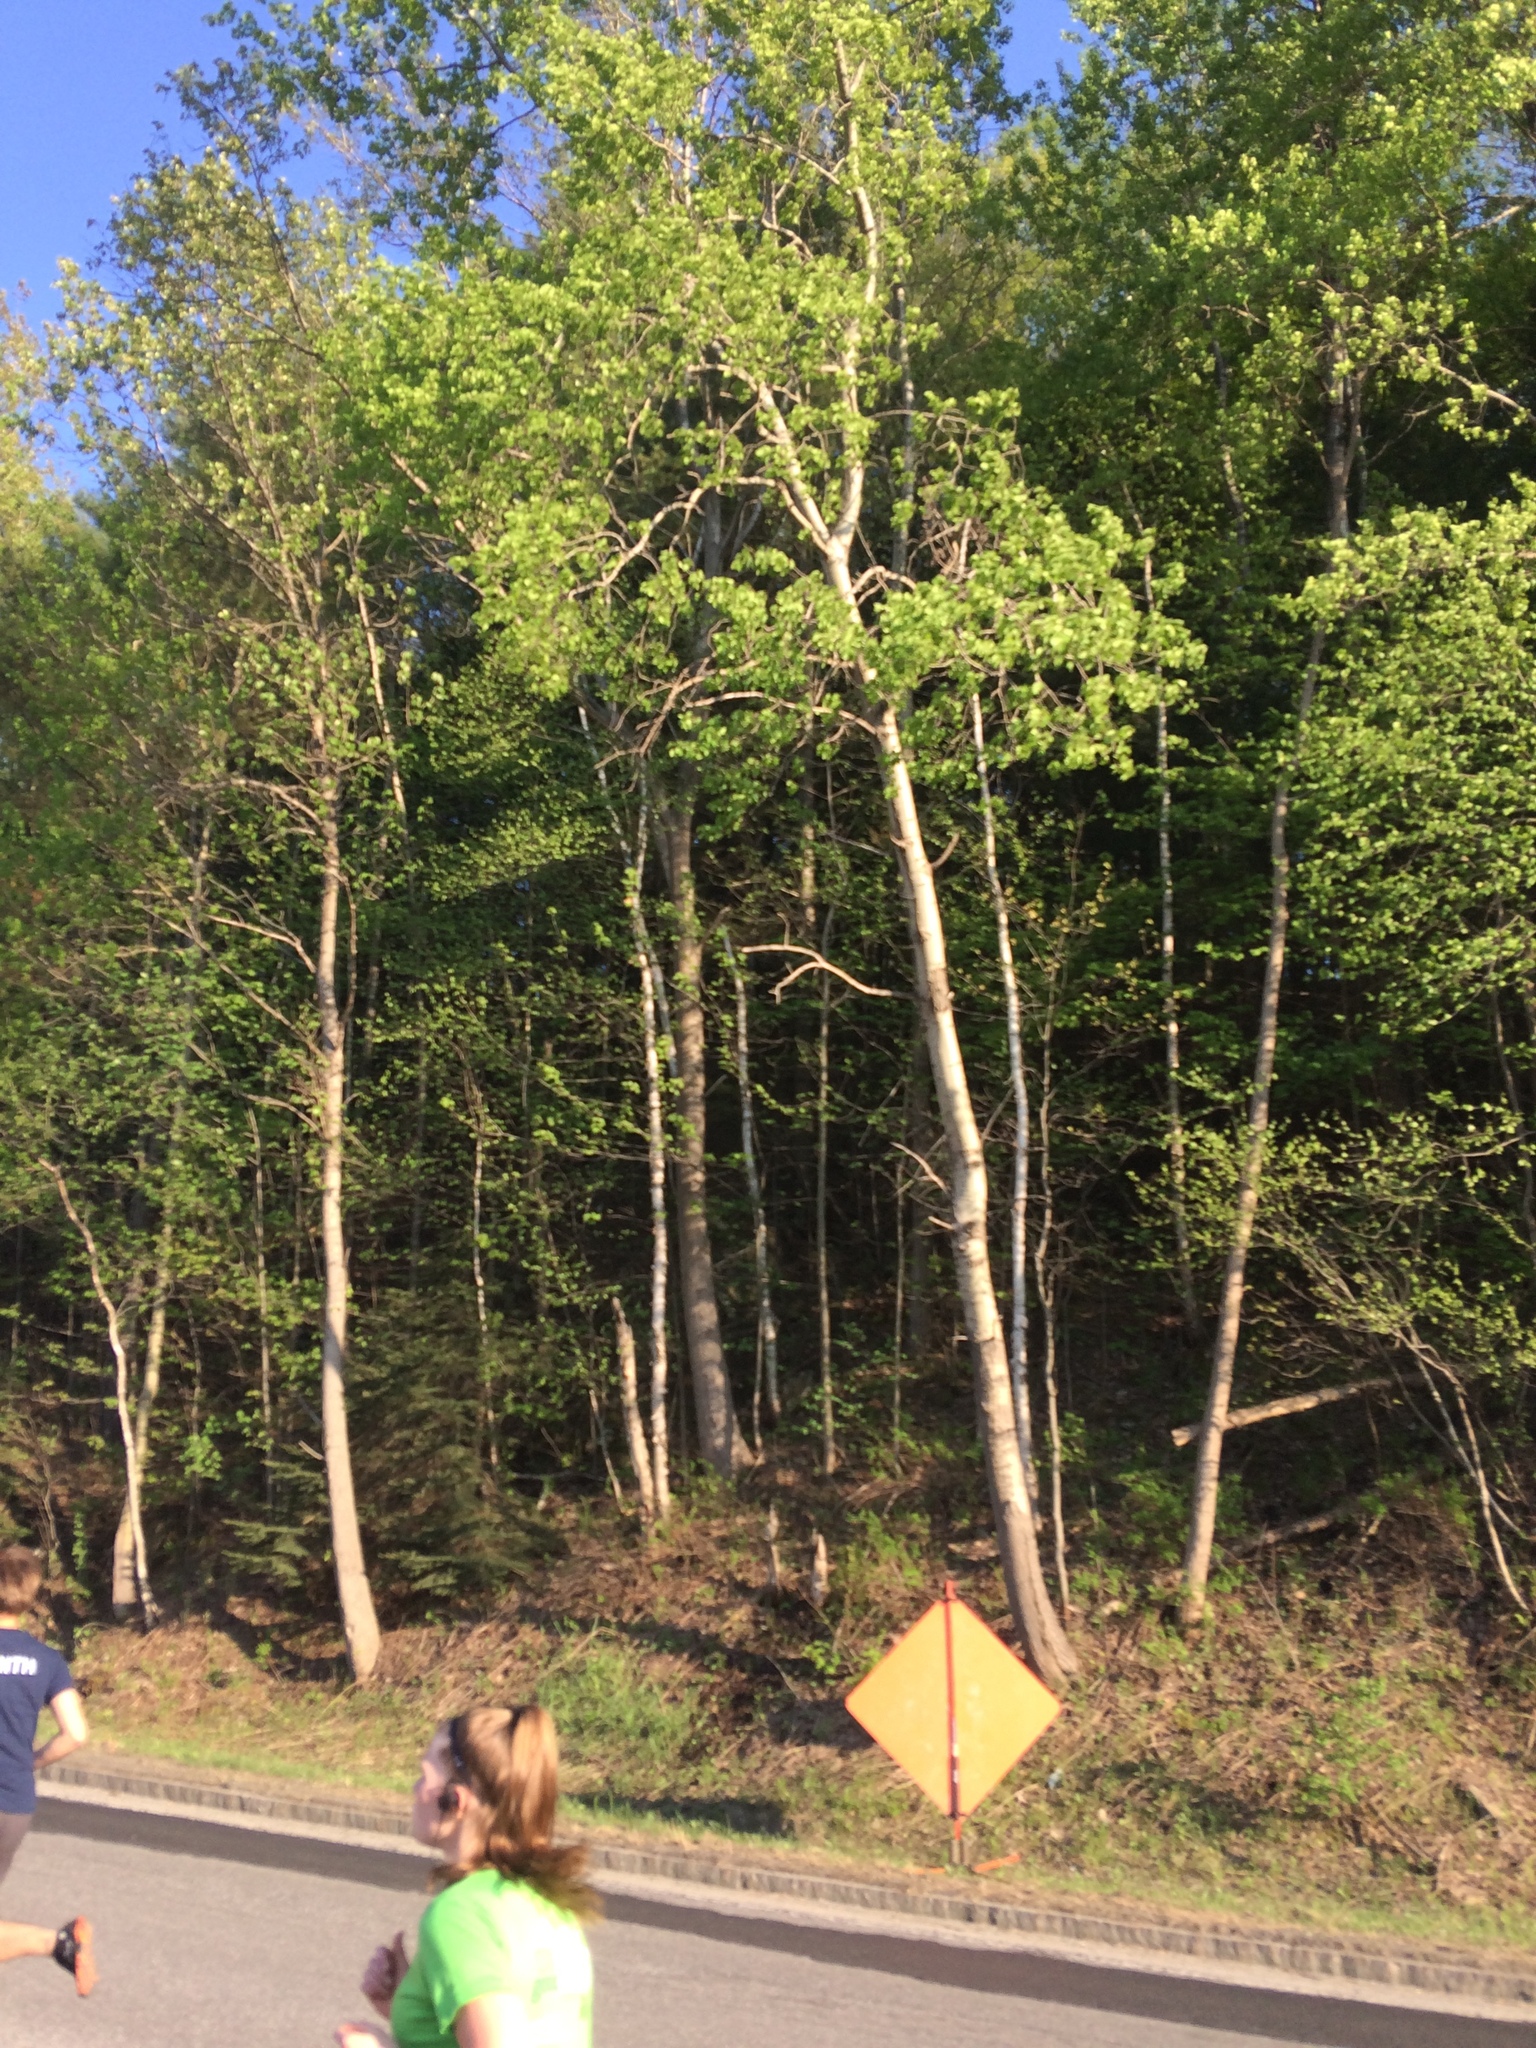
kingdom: Plantae
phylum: Tracheophyta
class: Magnoliopsida
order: Malpighiales
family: Salicaceae
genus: Populus
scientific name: Populus tremuloides
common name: Quaking aspen
